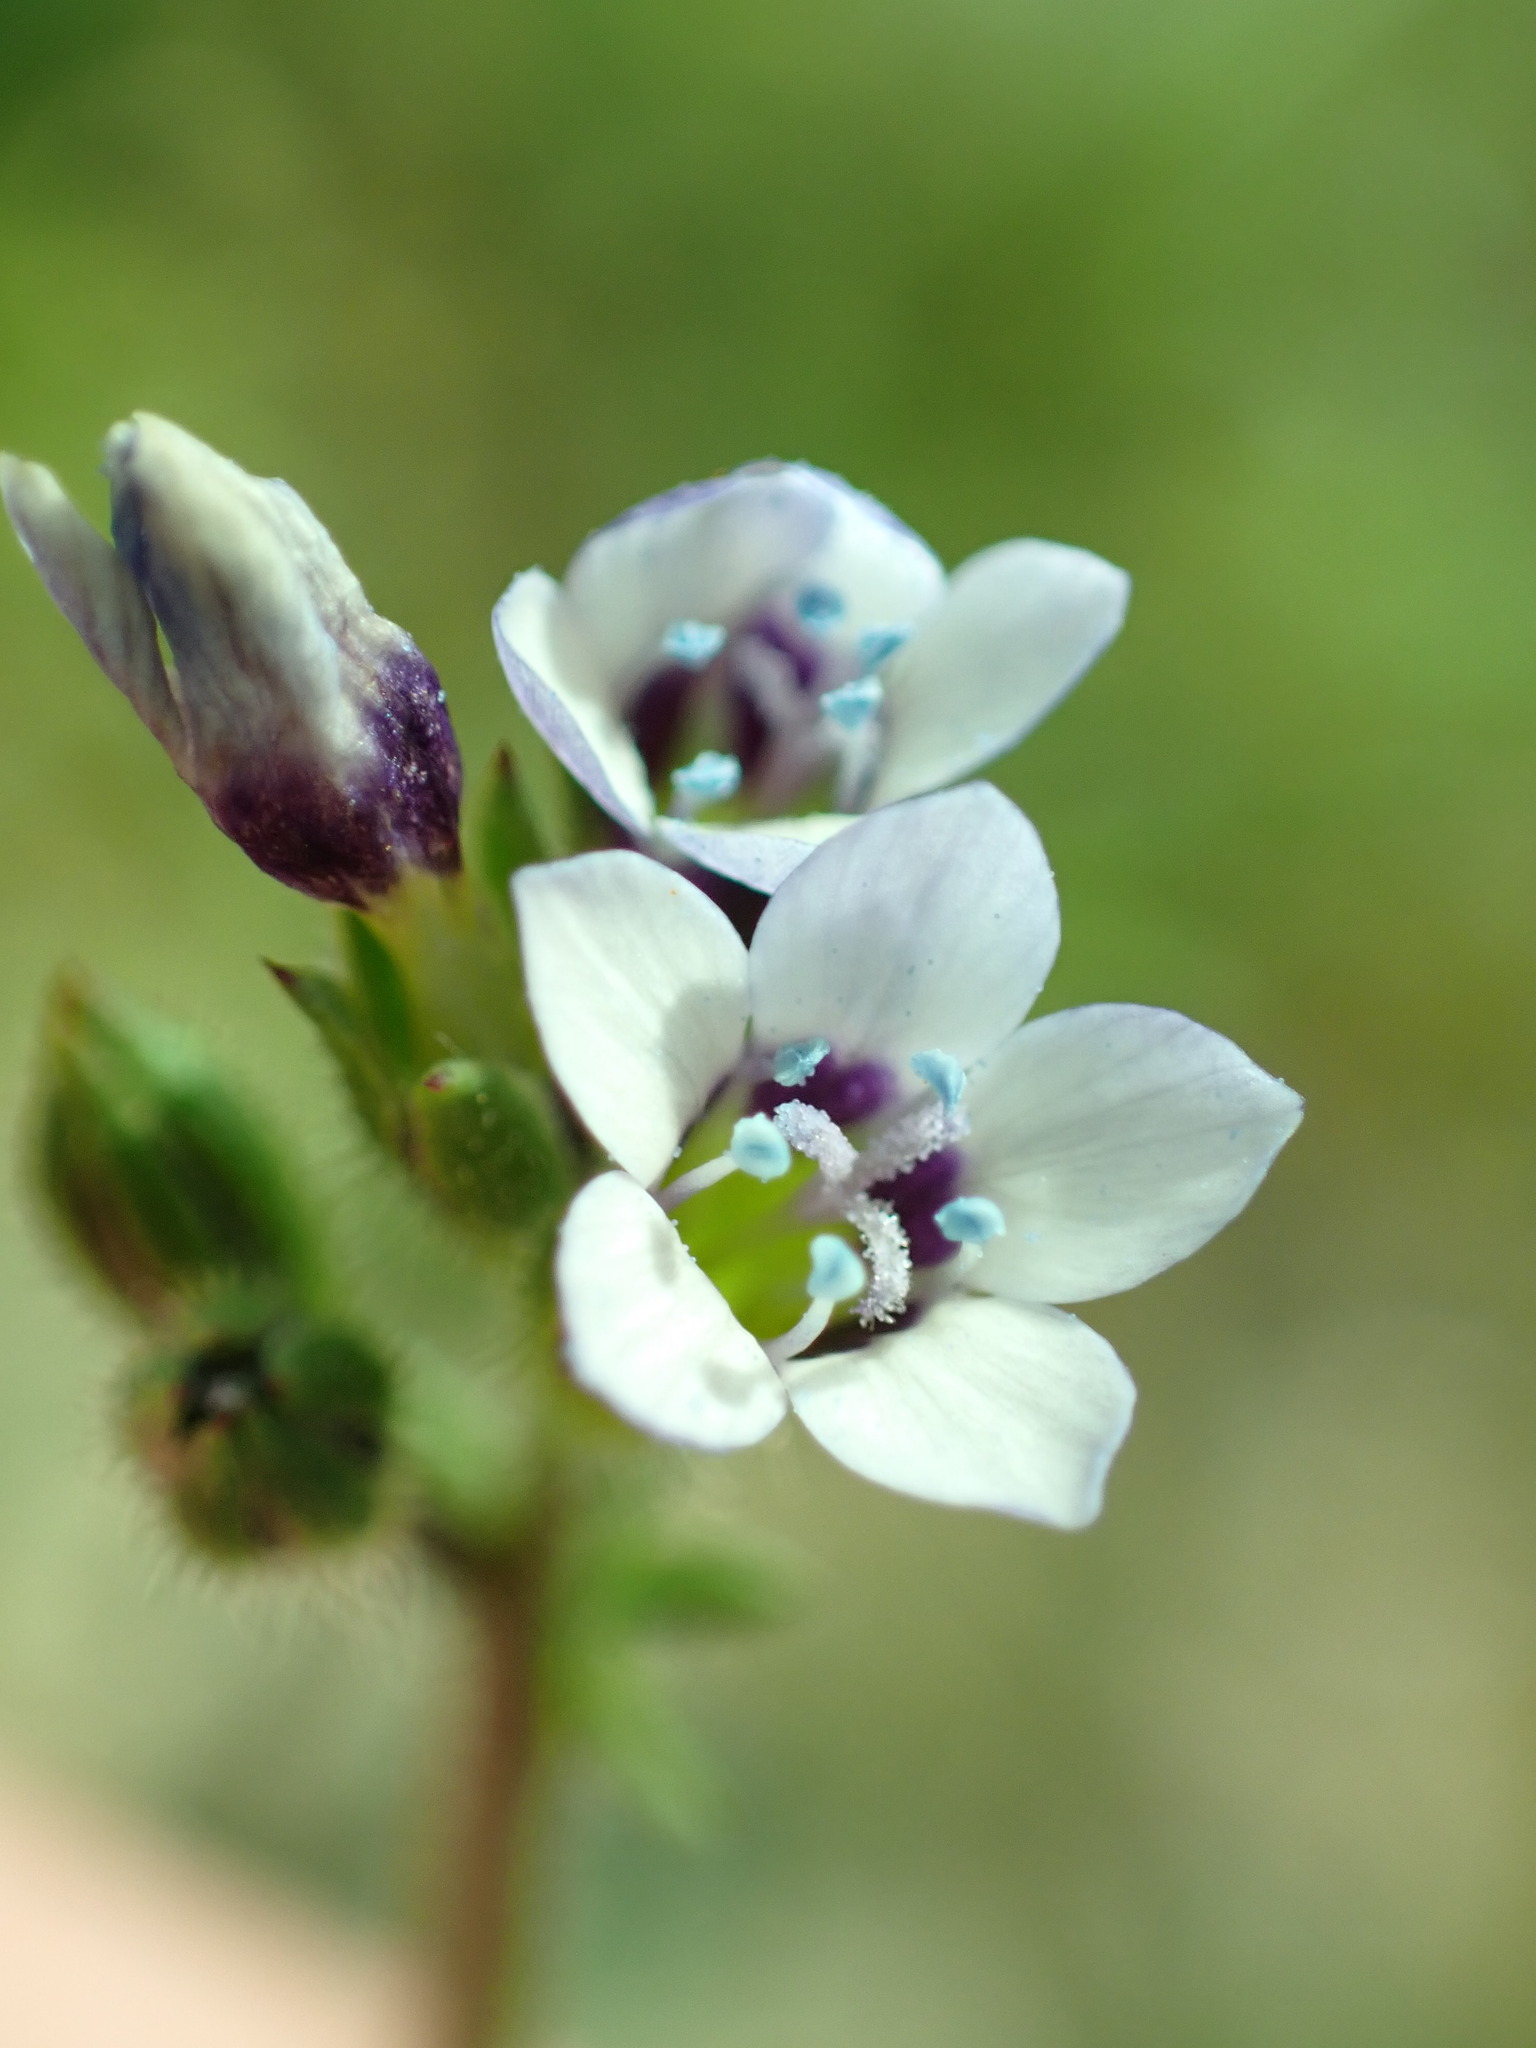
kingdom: Plantae
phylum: Tracheophyta
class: Magnoliopsida
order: Ericales
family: Polemoniaceae
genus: Gilia
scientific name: Gilia clivorum
